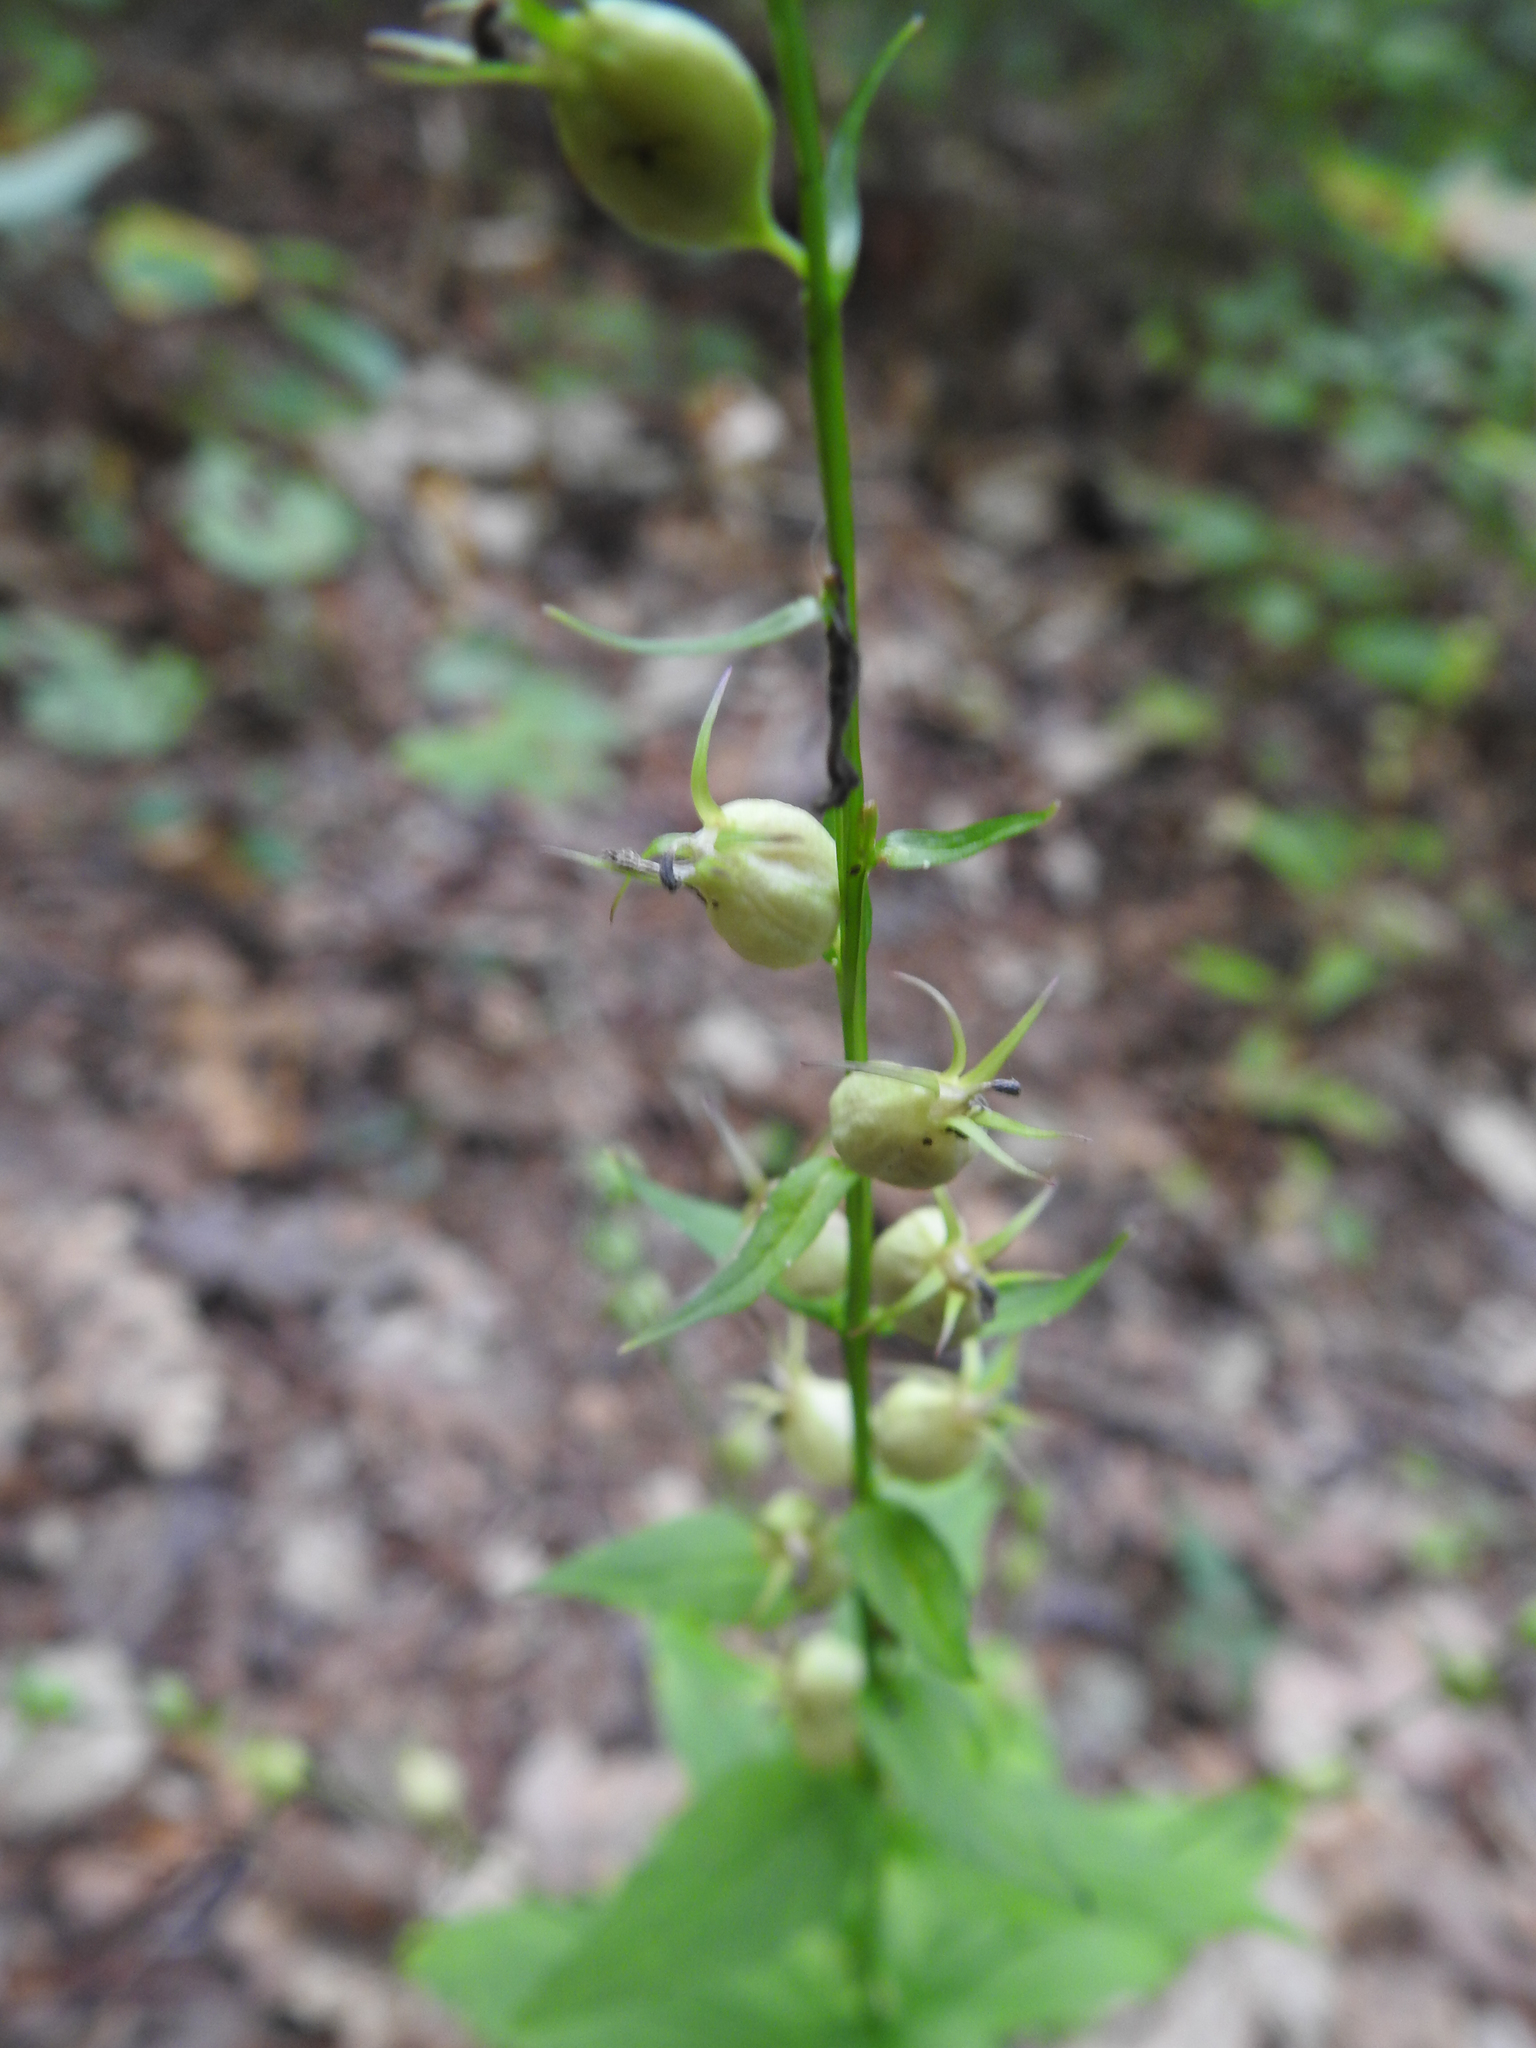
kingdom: Plantae
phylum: Tracheophyta
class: Magnoliopsida
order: Asterales
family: Campanulaceae
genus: Lobelia
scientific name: Lobelia inflata
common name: Indian tobacco
